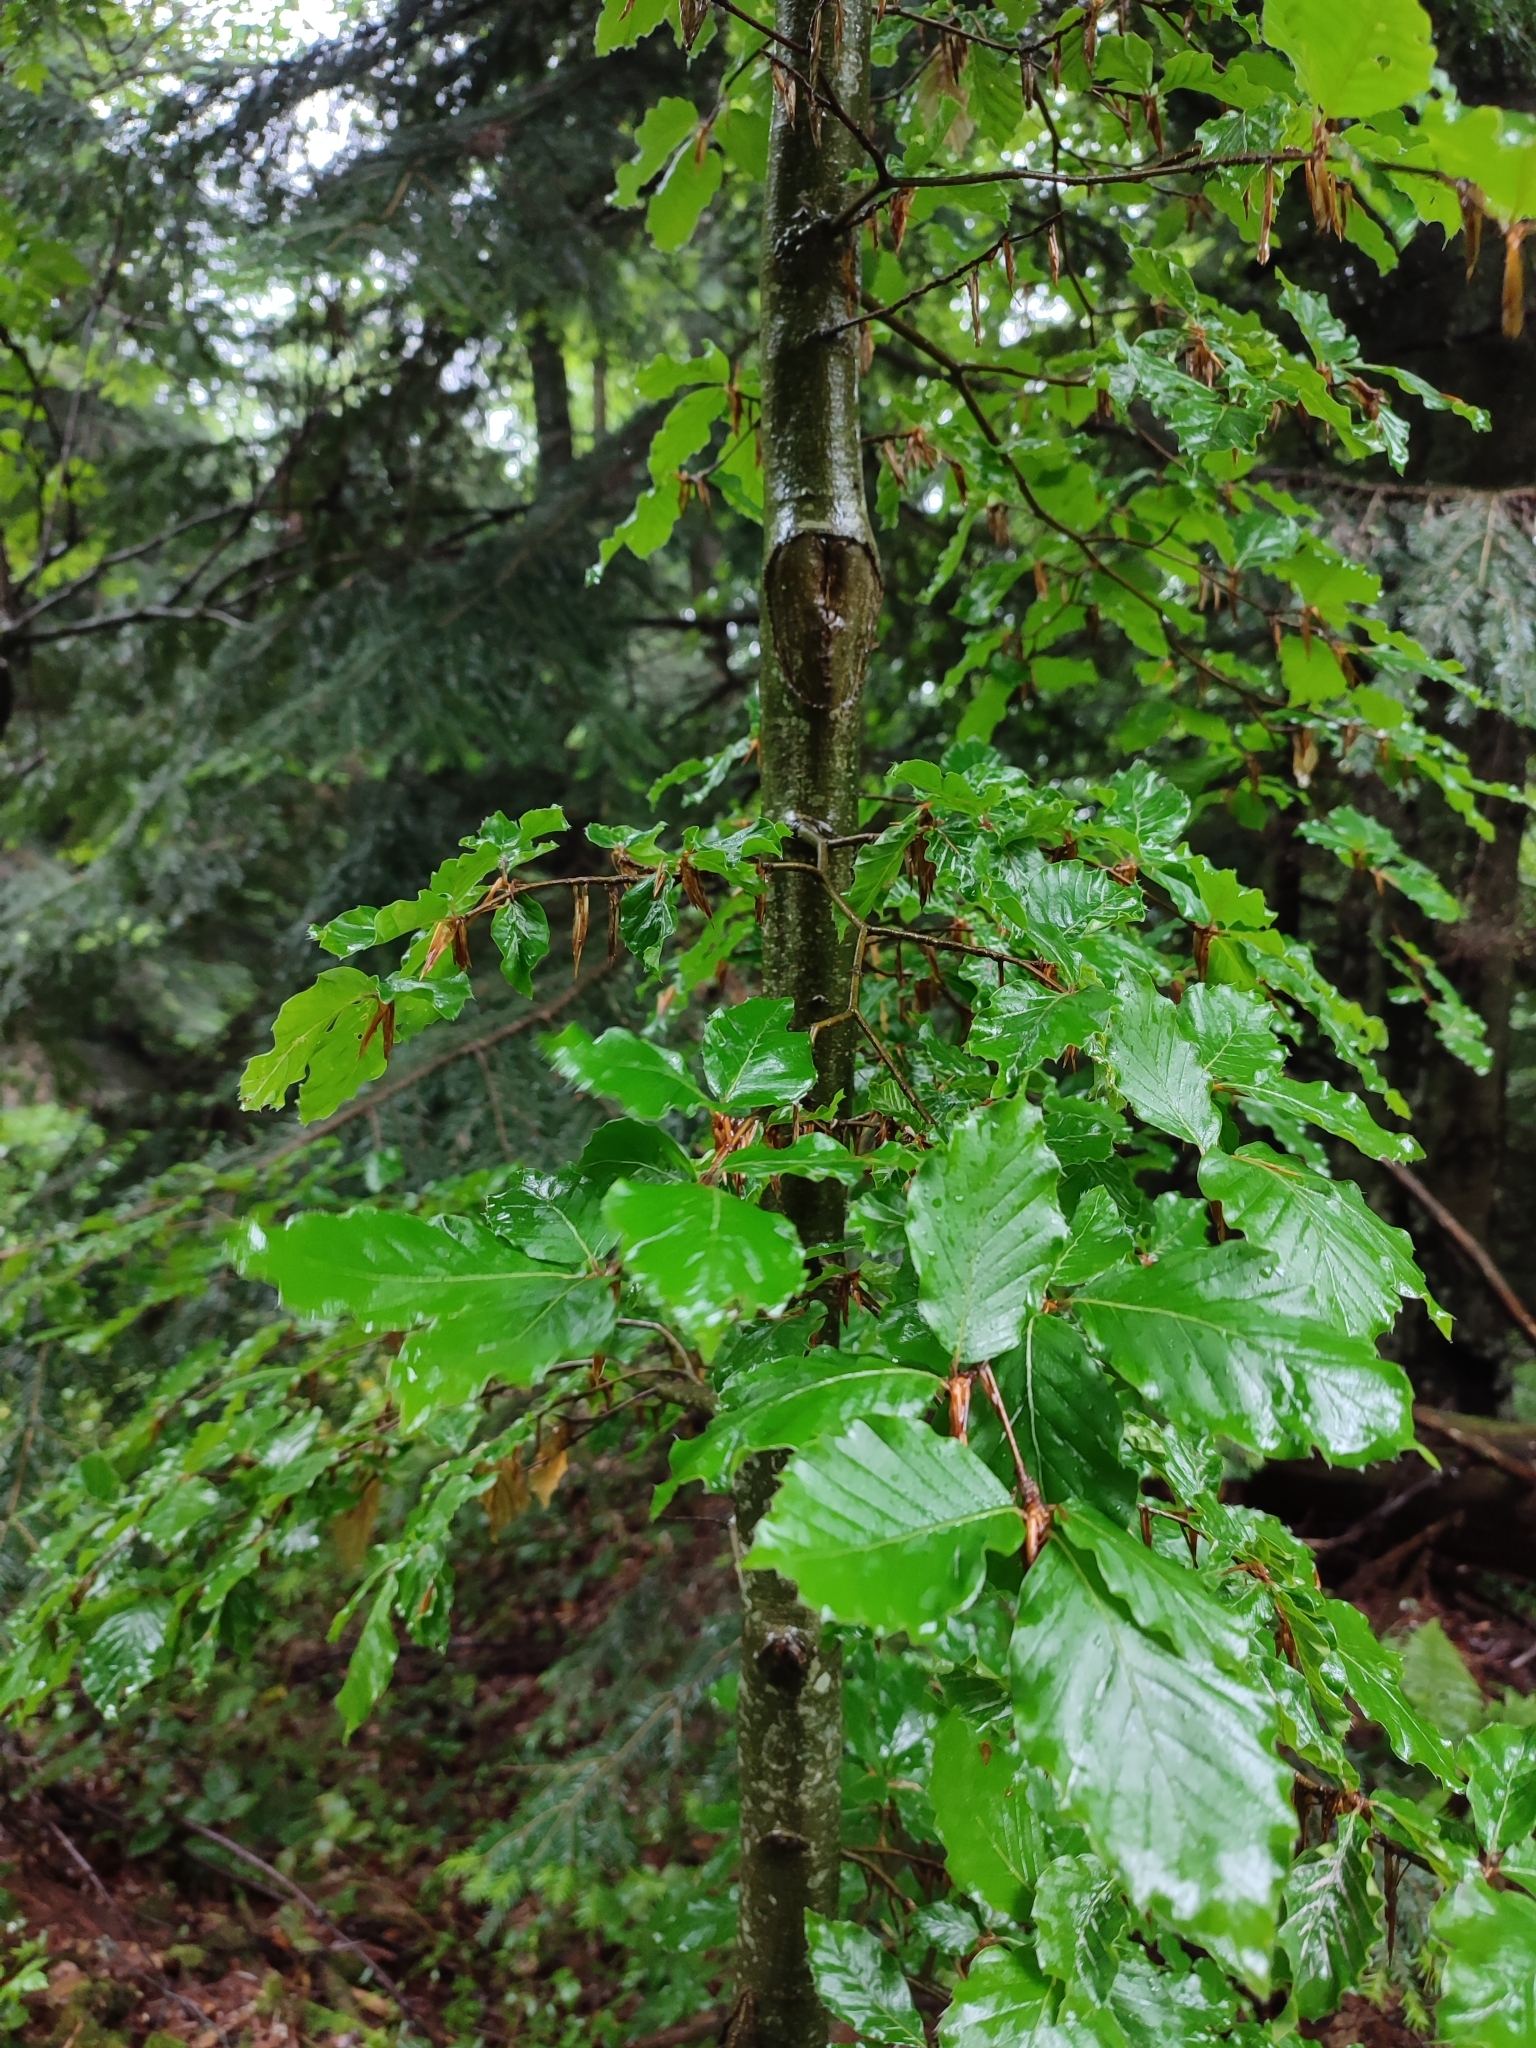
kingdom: Plantae
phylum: Tracheophyta
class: Magnoliopsida
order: Fagales
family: Fagaceae
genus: Fagus
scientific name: Fagus sylvatica
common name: Beech
